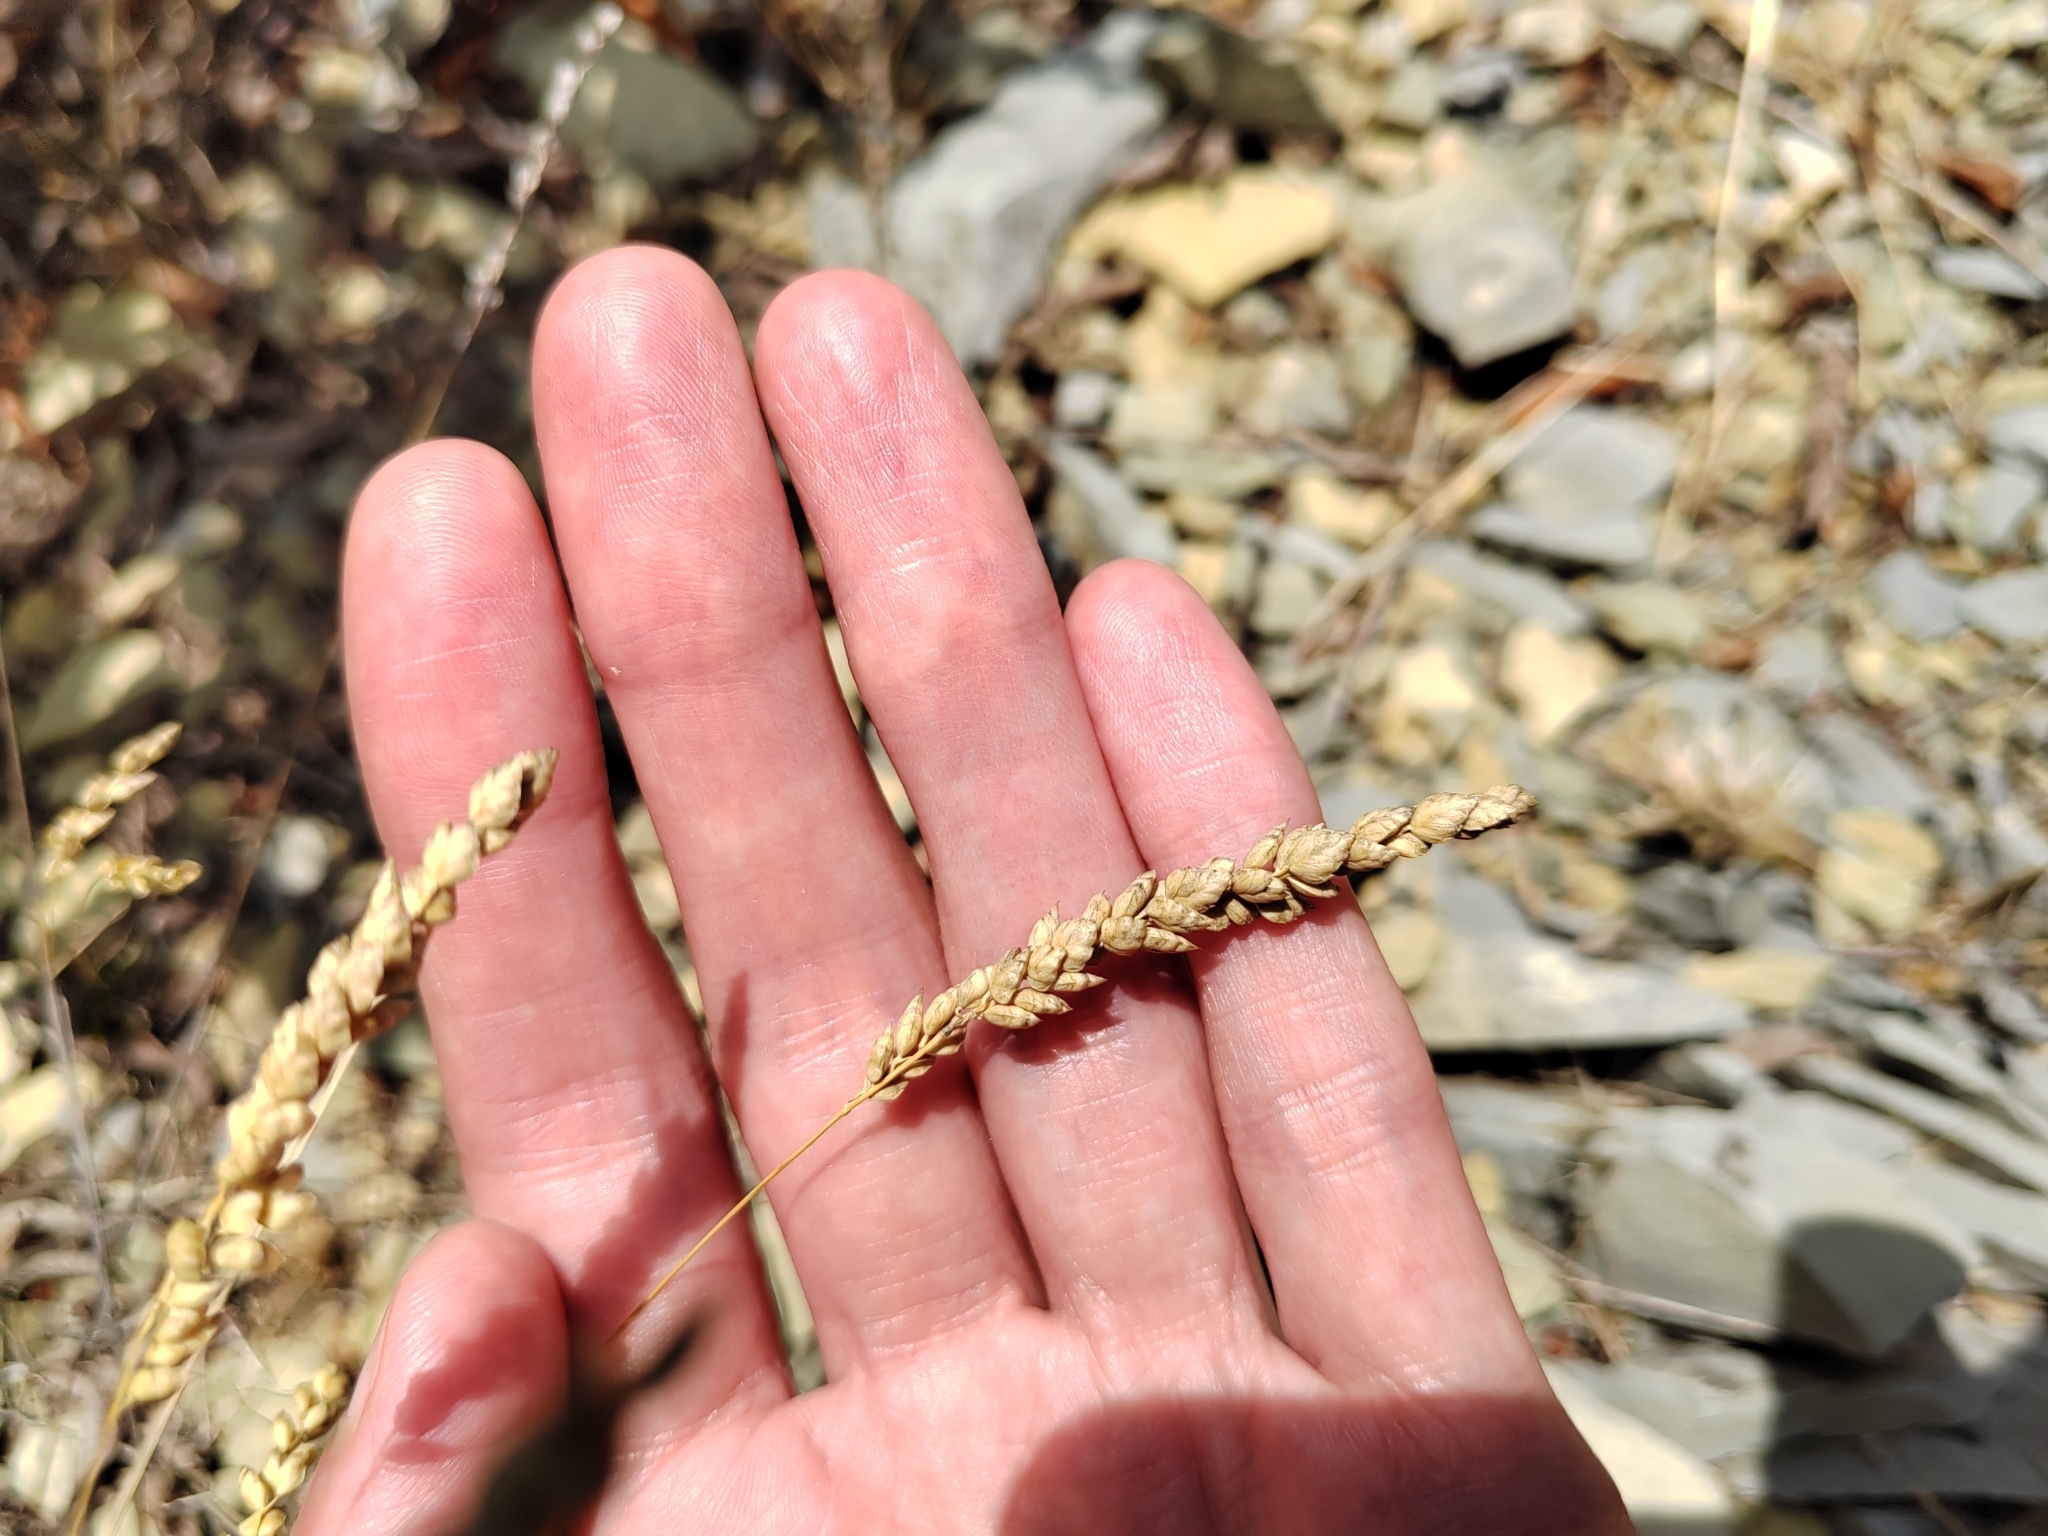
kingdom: Plantae
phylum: Tracheophyta
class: Liliopsida
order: Poales
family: Poaceae
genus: Briza
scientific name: Briza humilis
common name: Spiked quaking grass
